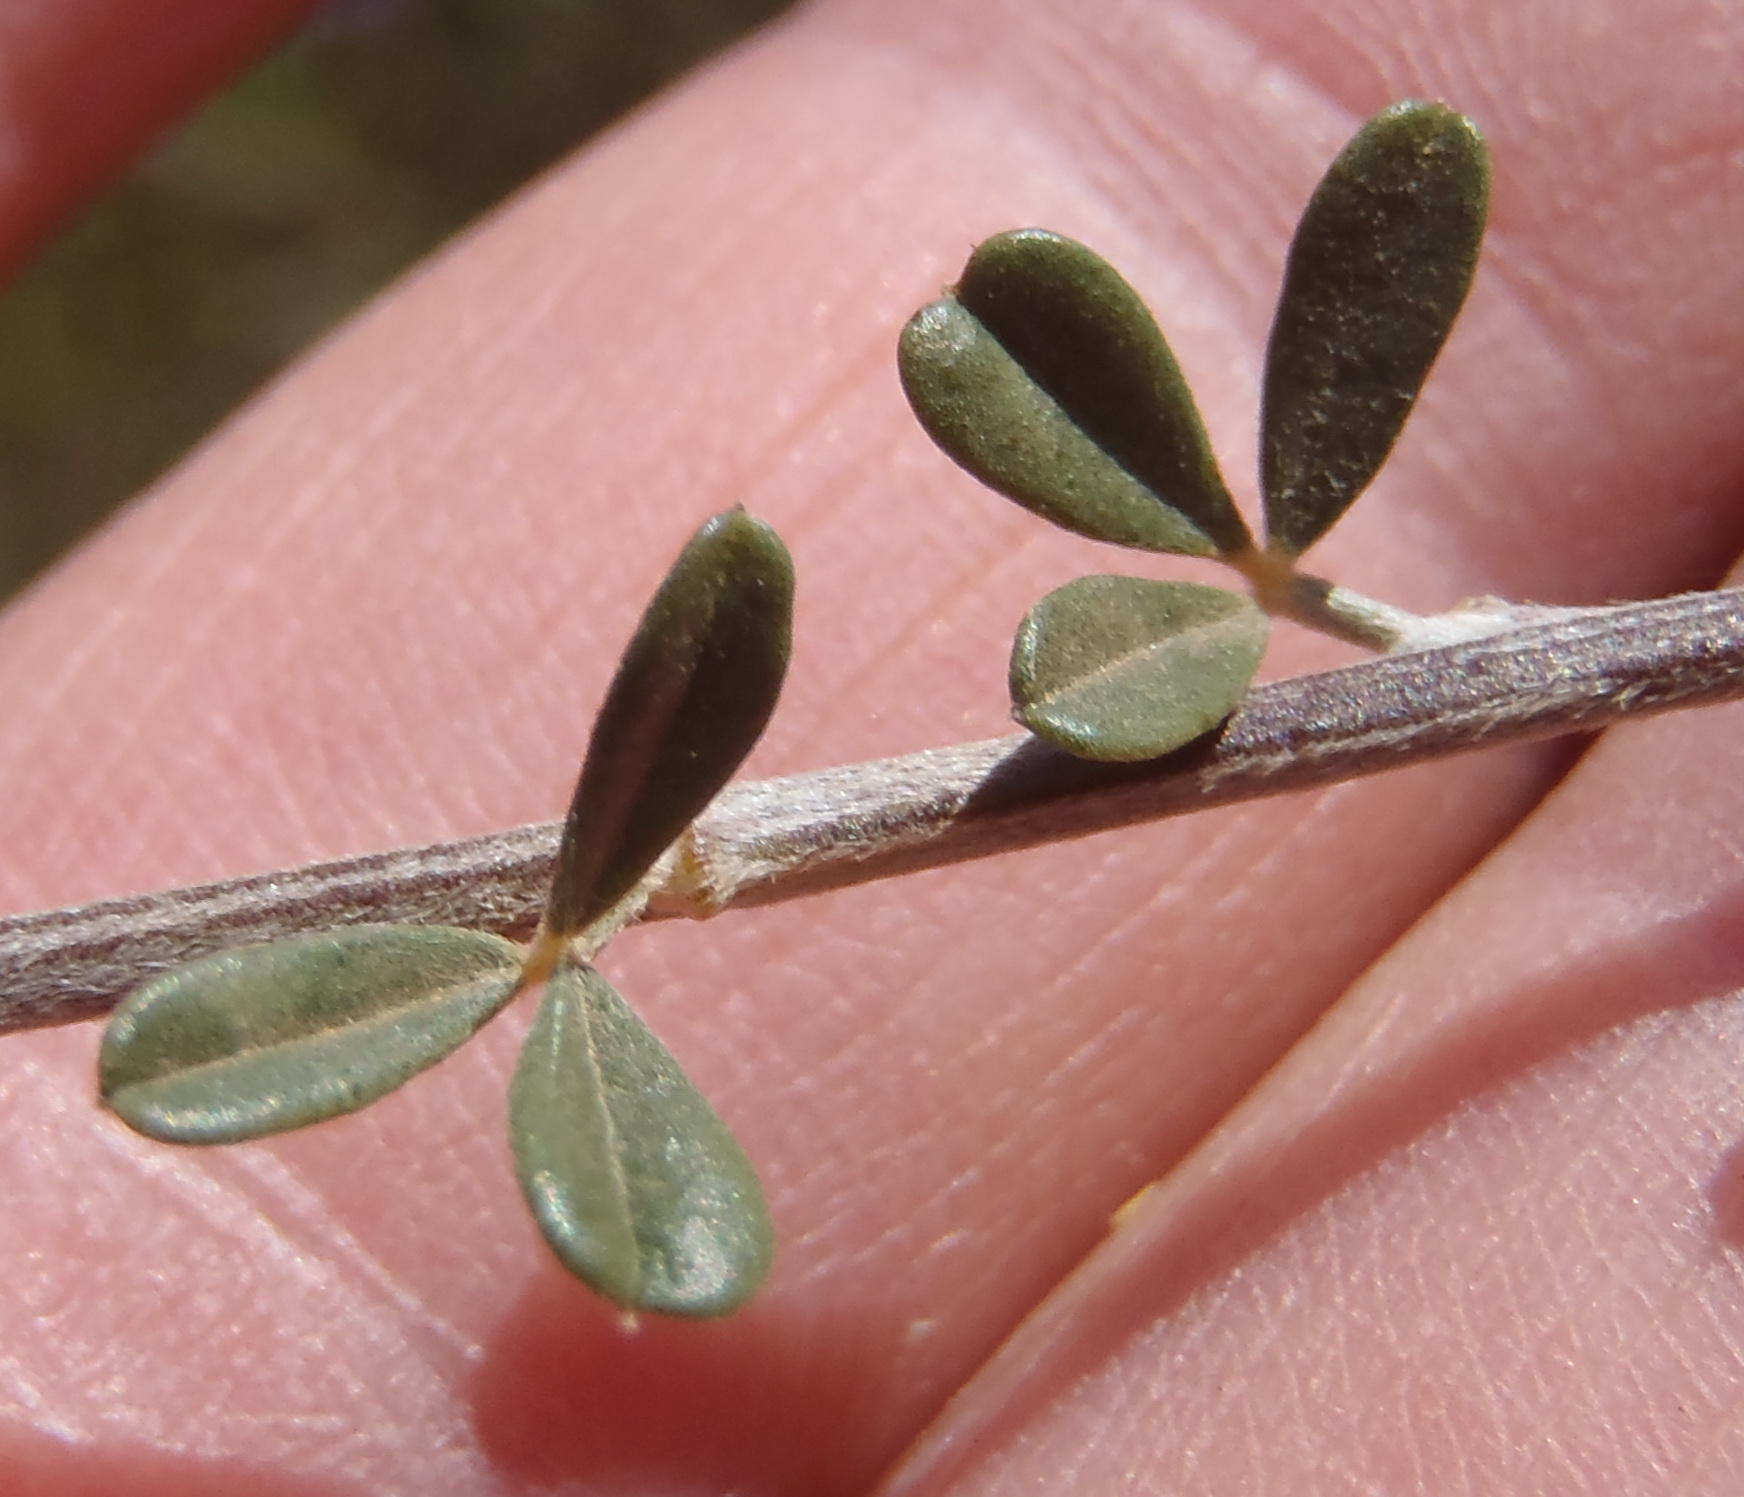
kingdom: Plantae
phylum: Tracheophyta
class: Magnoliopsida
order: Fabales
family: Fabaceae
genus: Wiborgia
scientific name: Wiborgia obcordata
